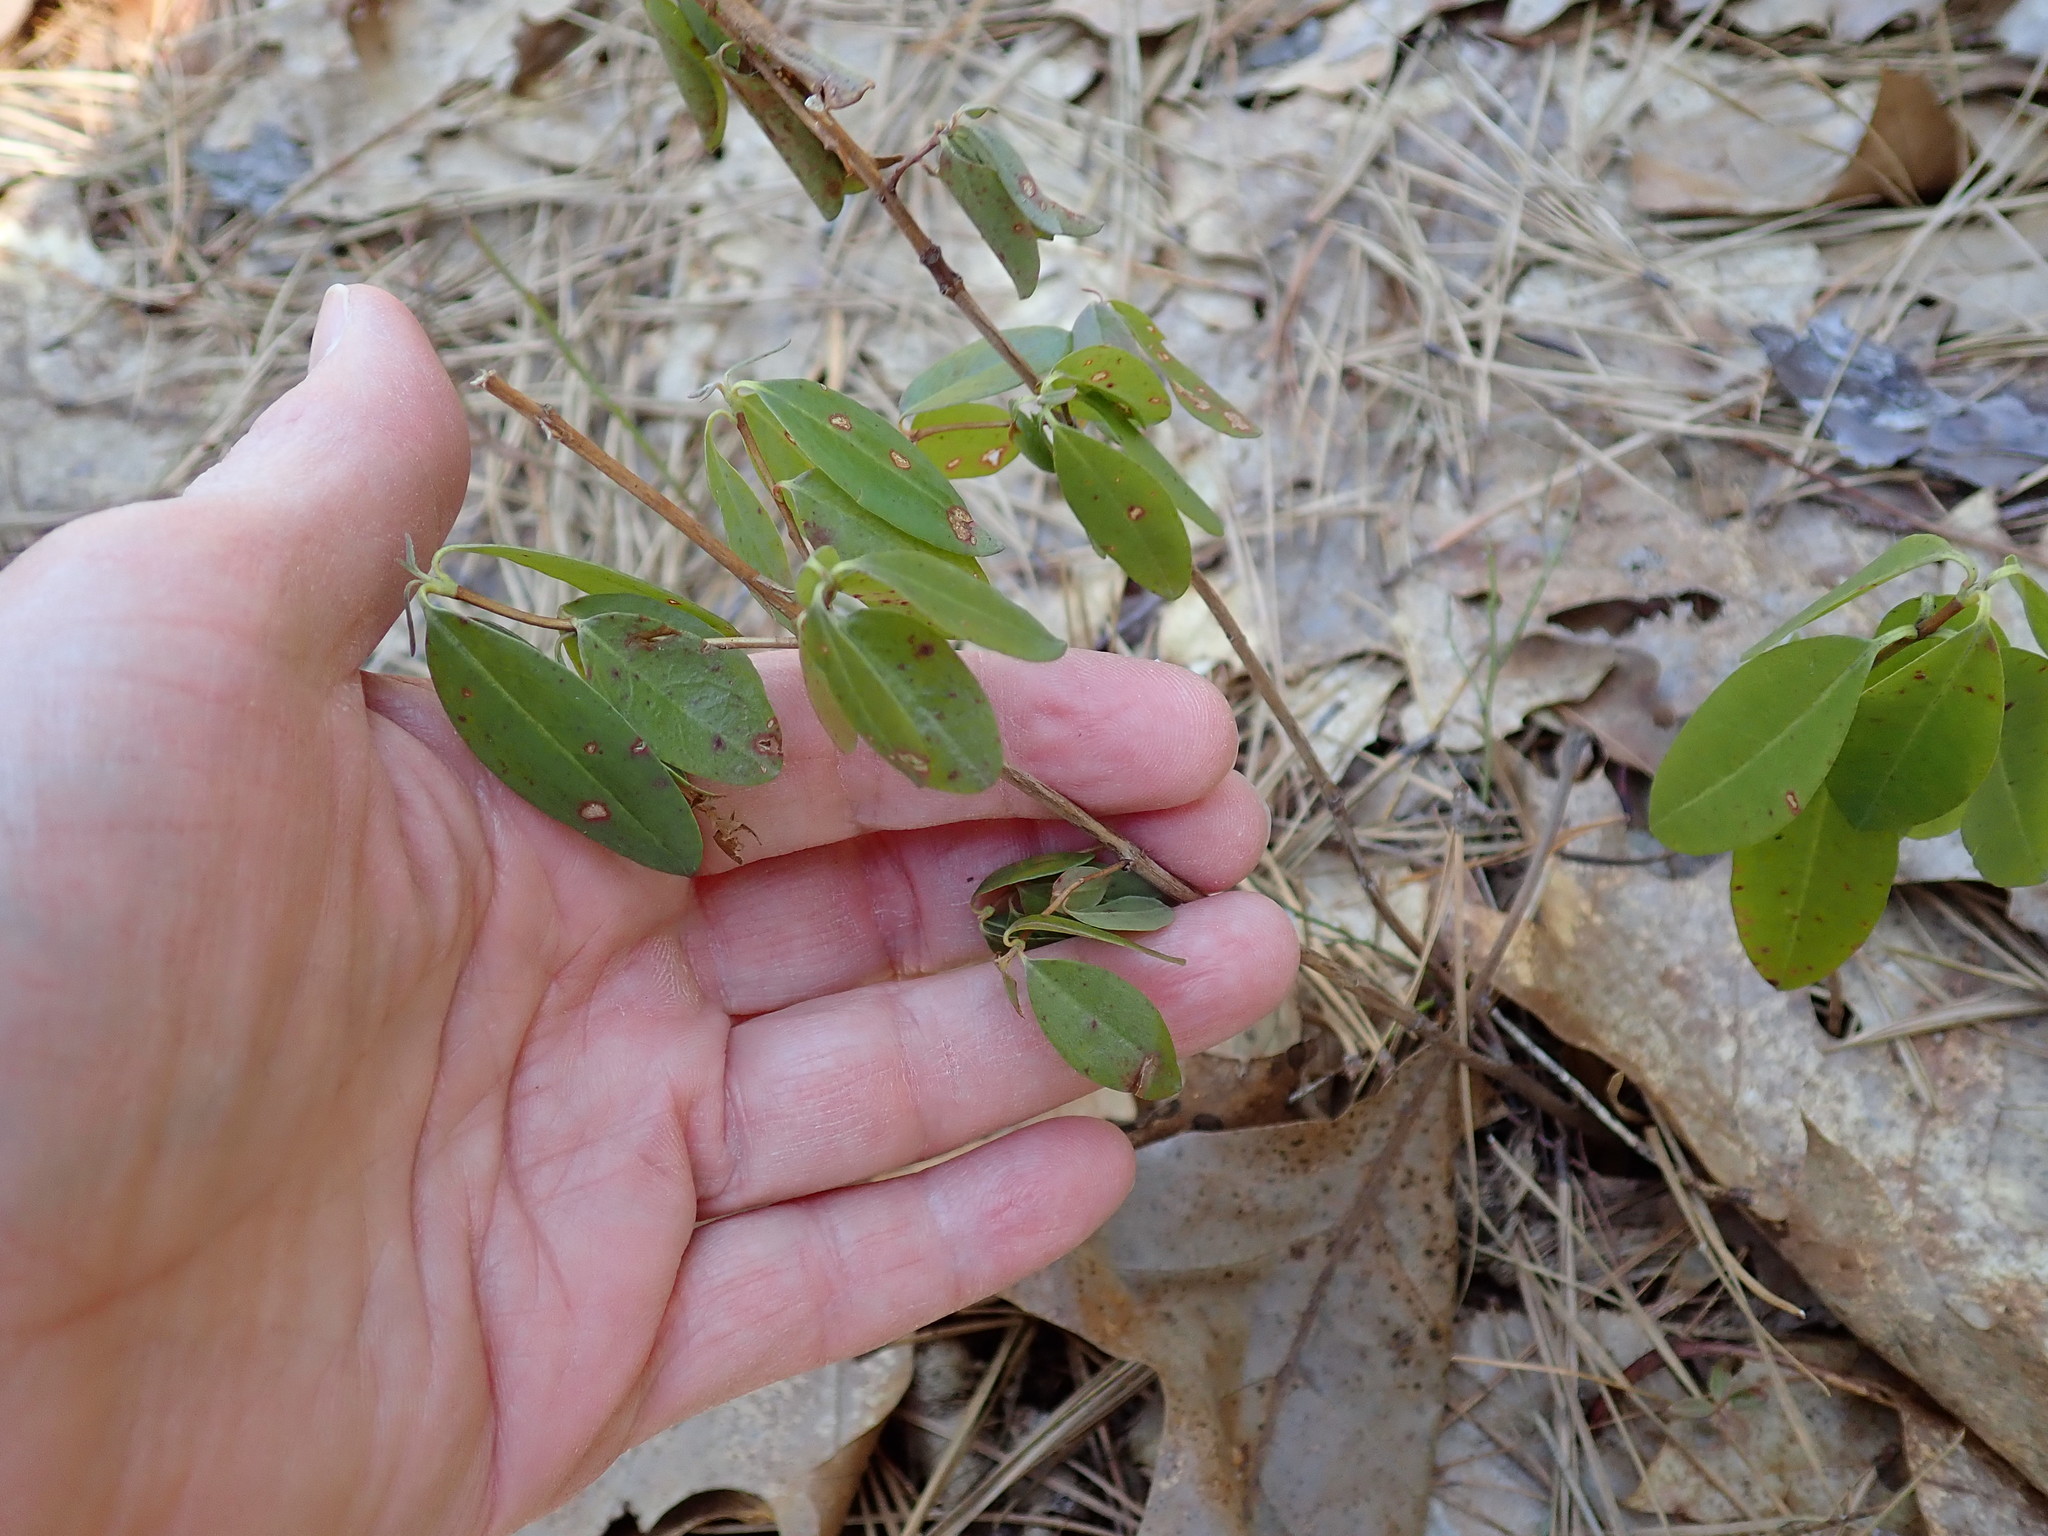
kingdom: Plantae
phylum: Tracheophyta
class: Magnoliopsida
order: Ericales
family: Ericaceae
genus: Kalmia
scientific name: Kalmia angustifolia
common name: Sheep-laurel
